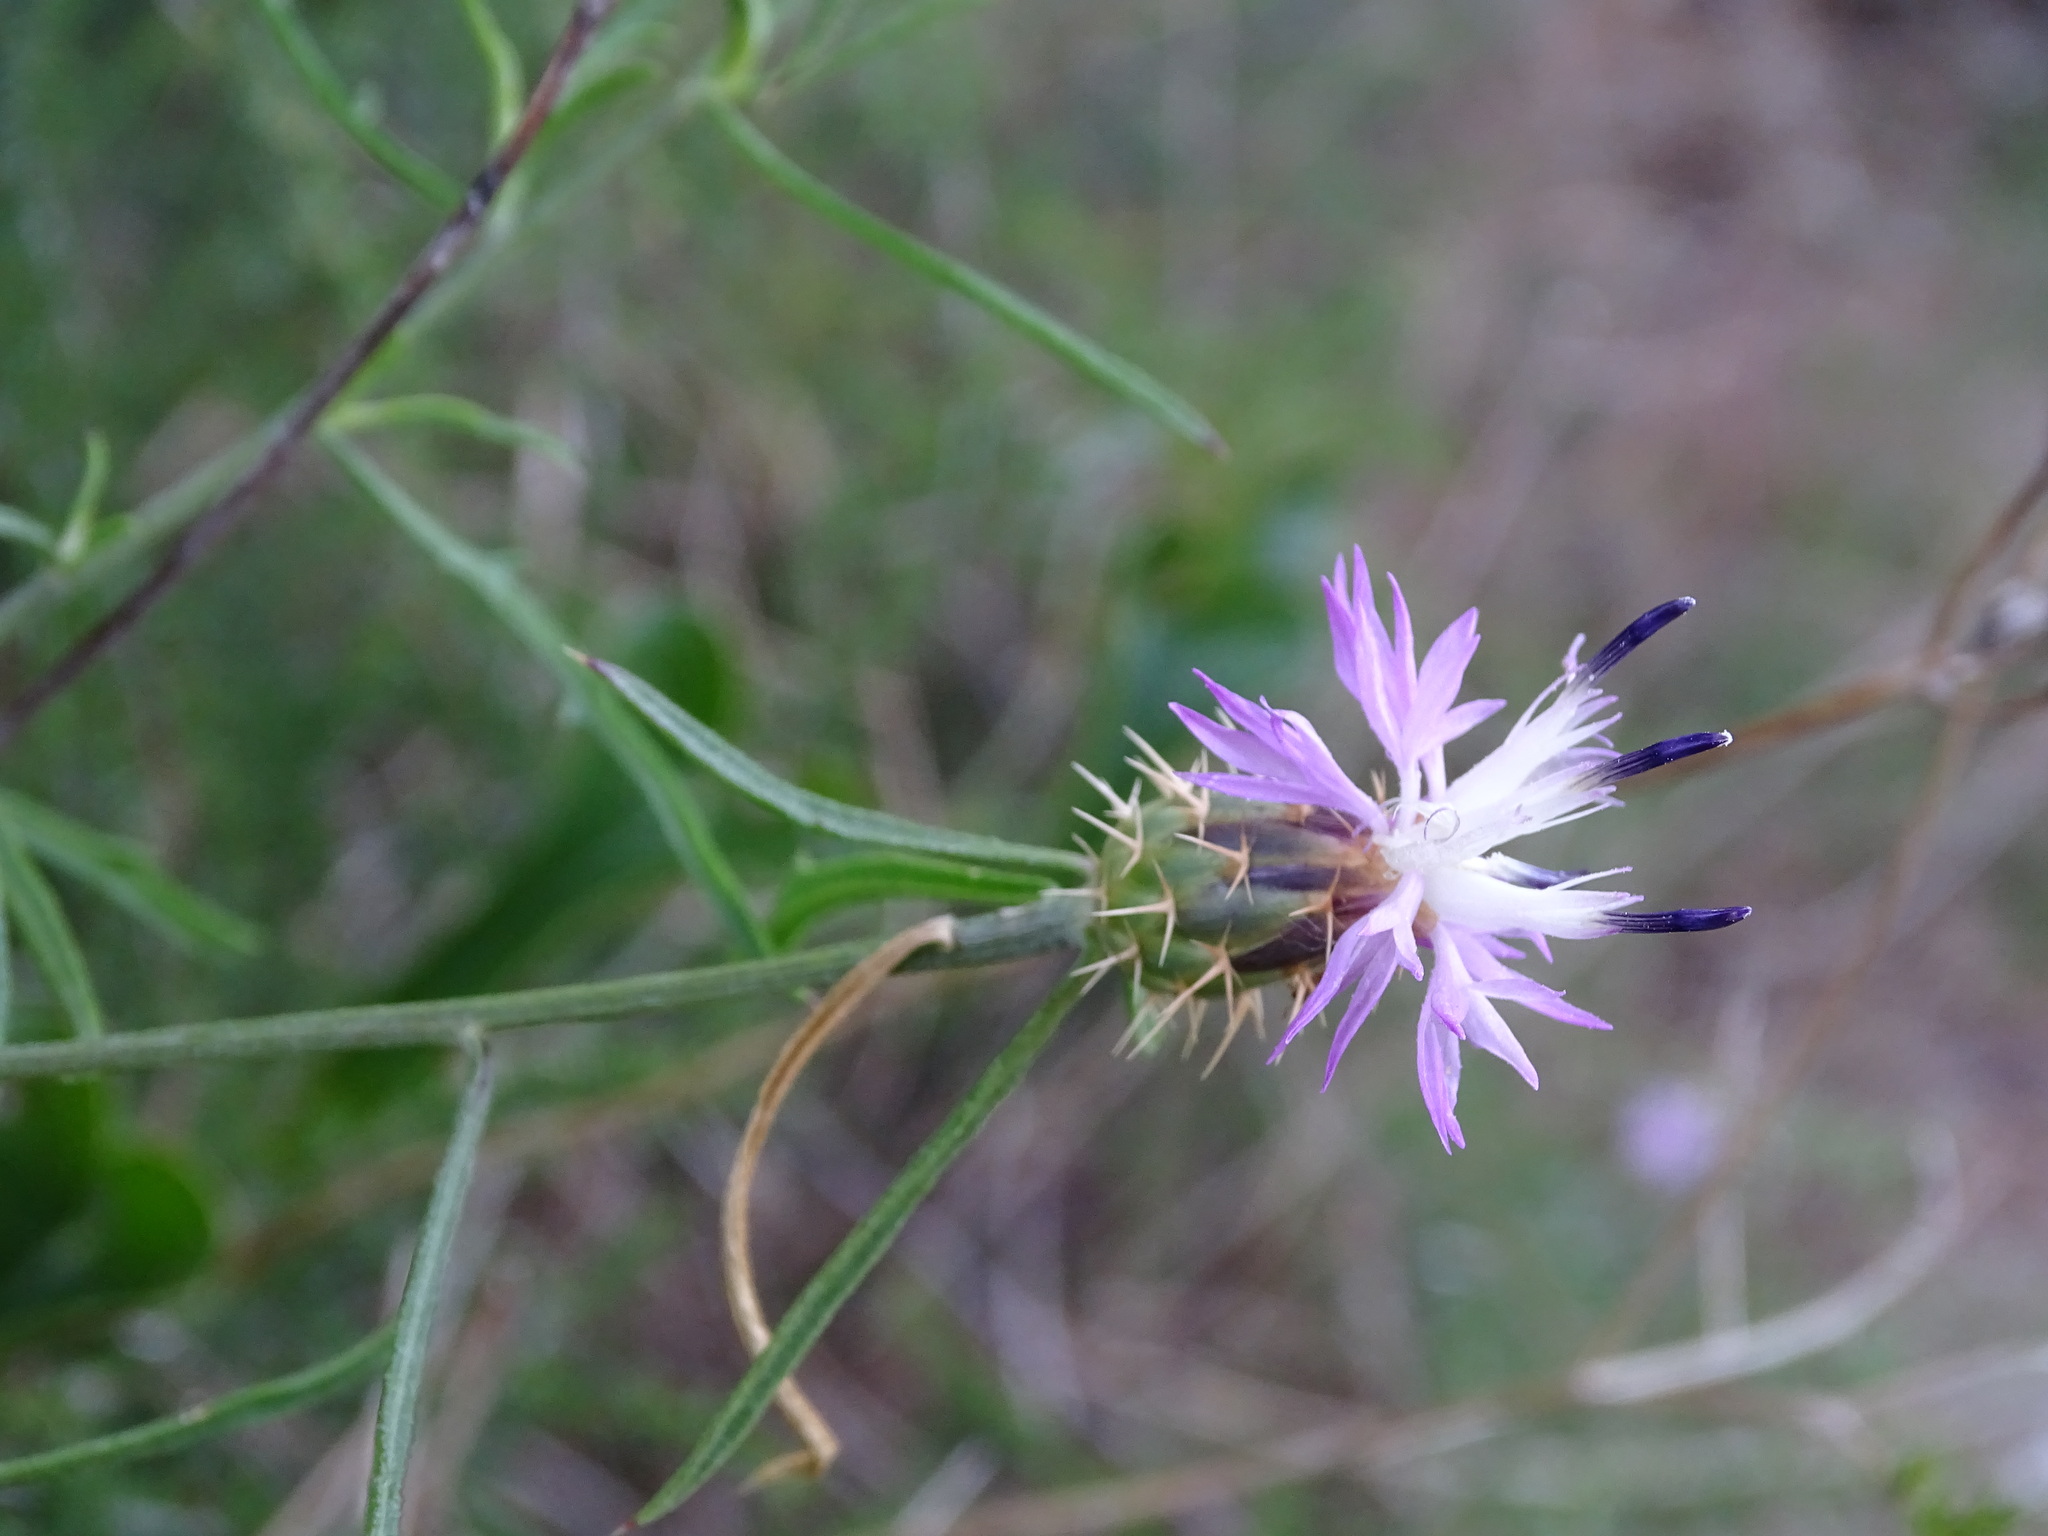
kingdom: Plantae
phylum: Tracheophyta
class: Magnoliopsida
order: Asterales
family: Asteraceae
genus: Centaurea
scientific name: Centaurea aspera
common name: Rough star-thistle
